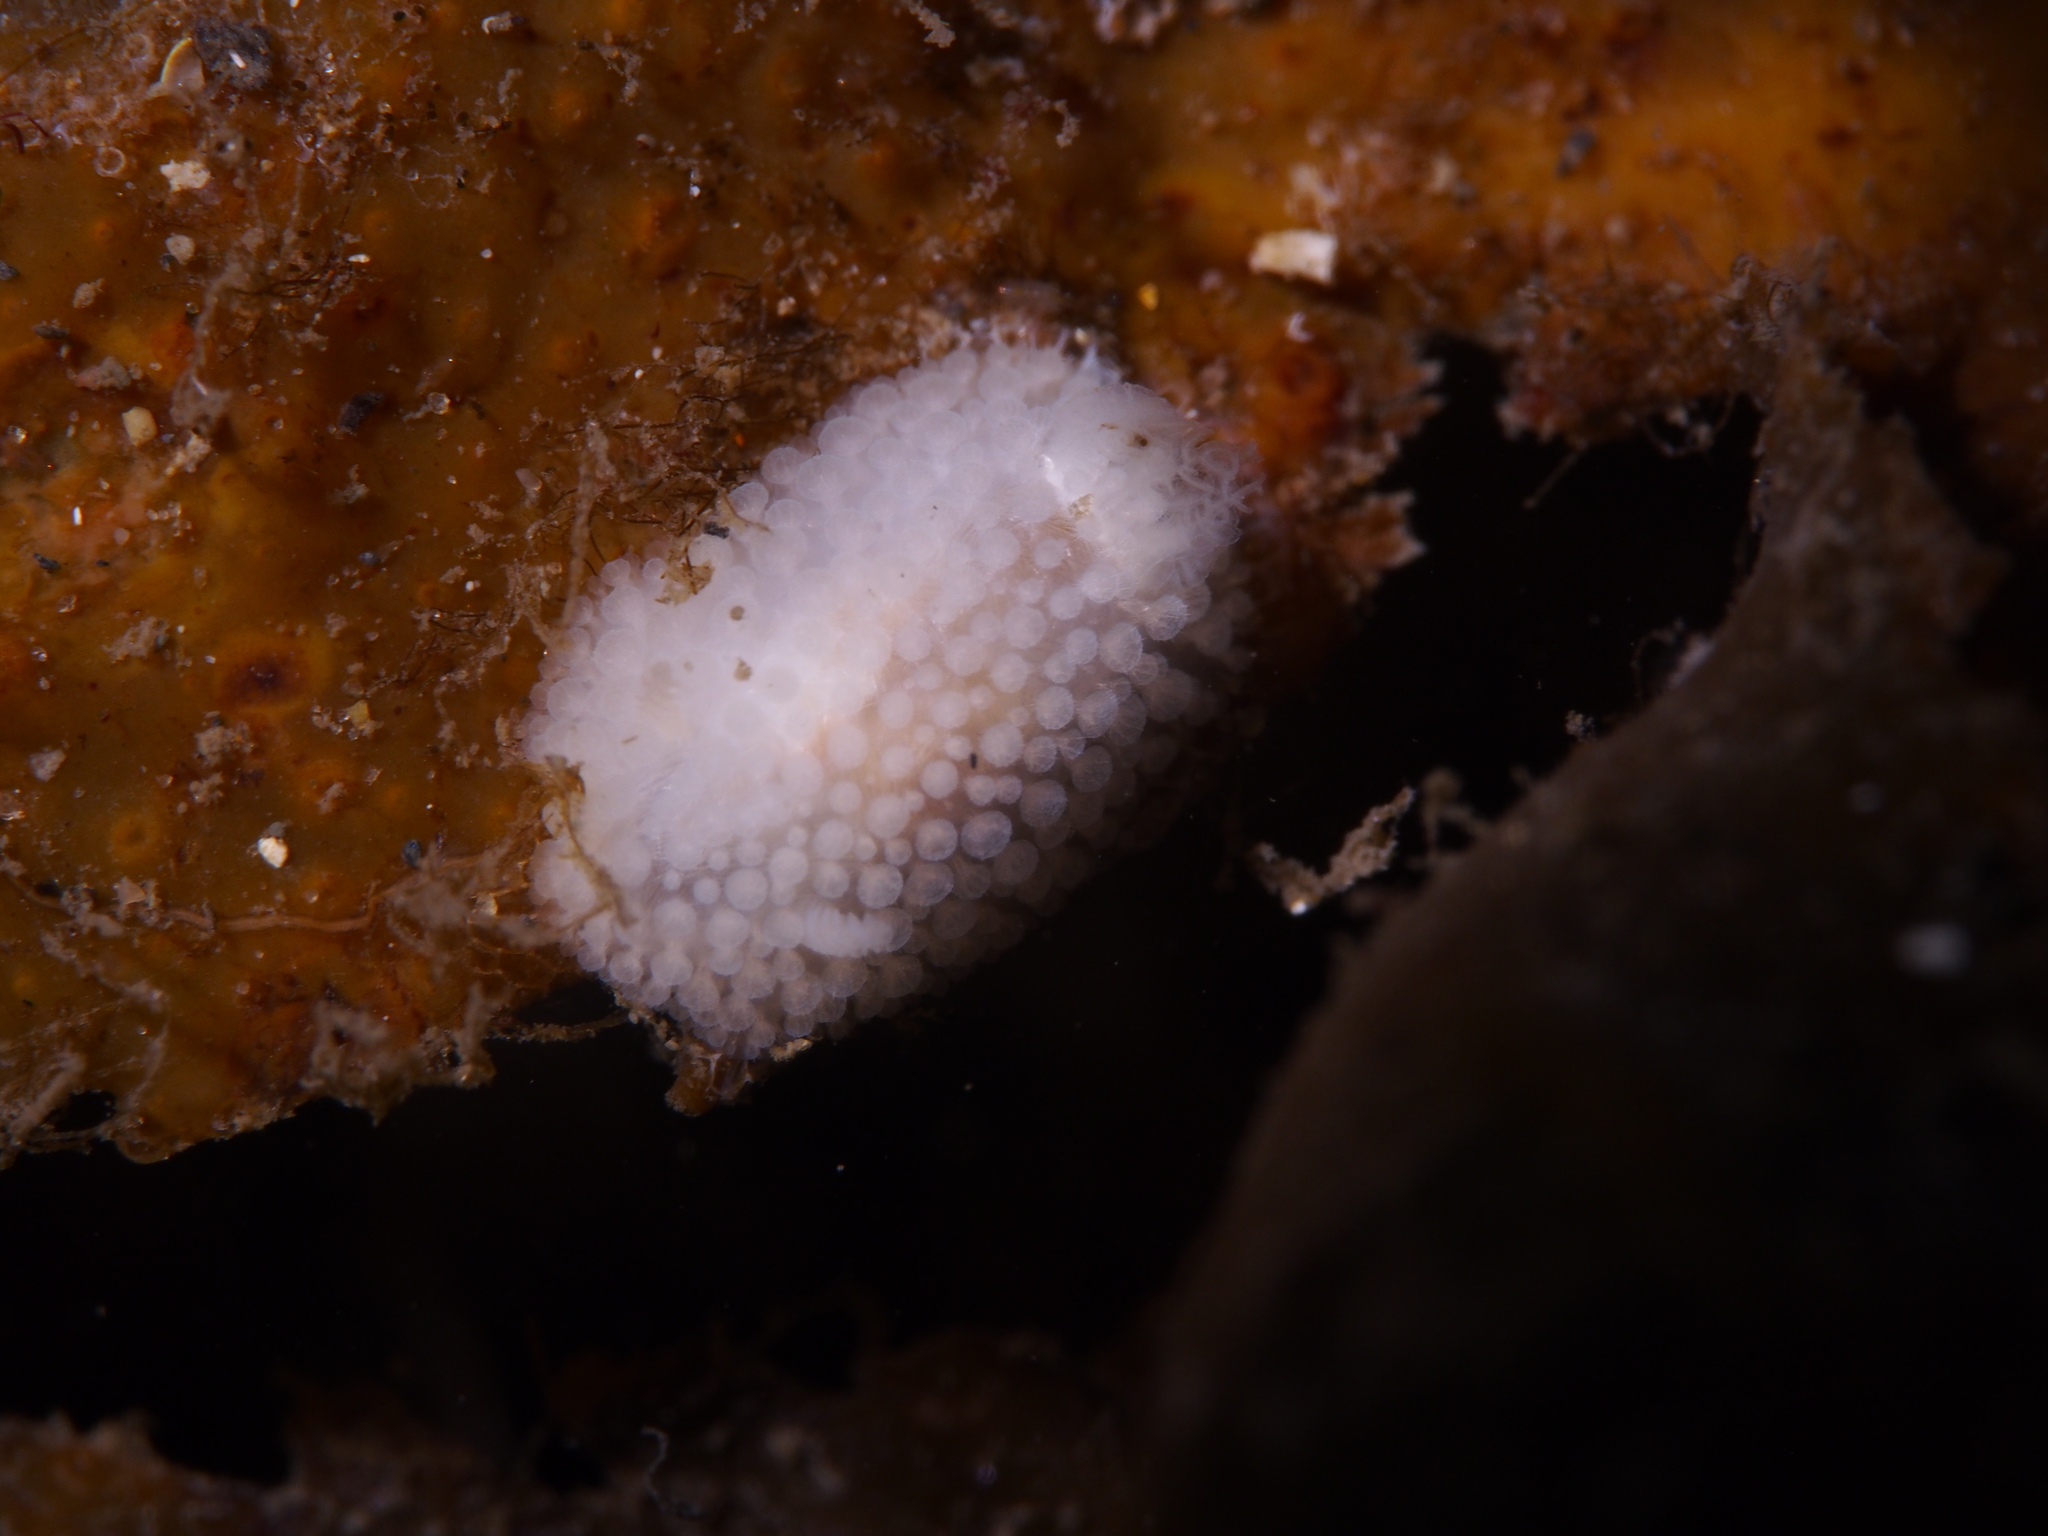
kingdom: Animalia
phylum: Mollusca
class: Gastropoda
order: Nudibranchia
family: Onchidorididae
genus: Onchidoris
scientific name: Onchidoris muricata
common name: Rough doris
